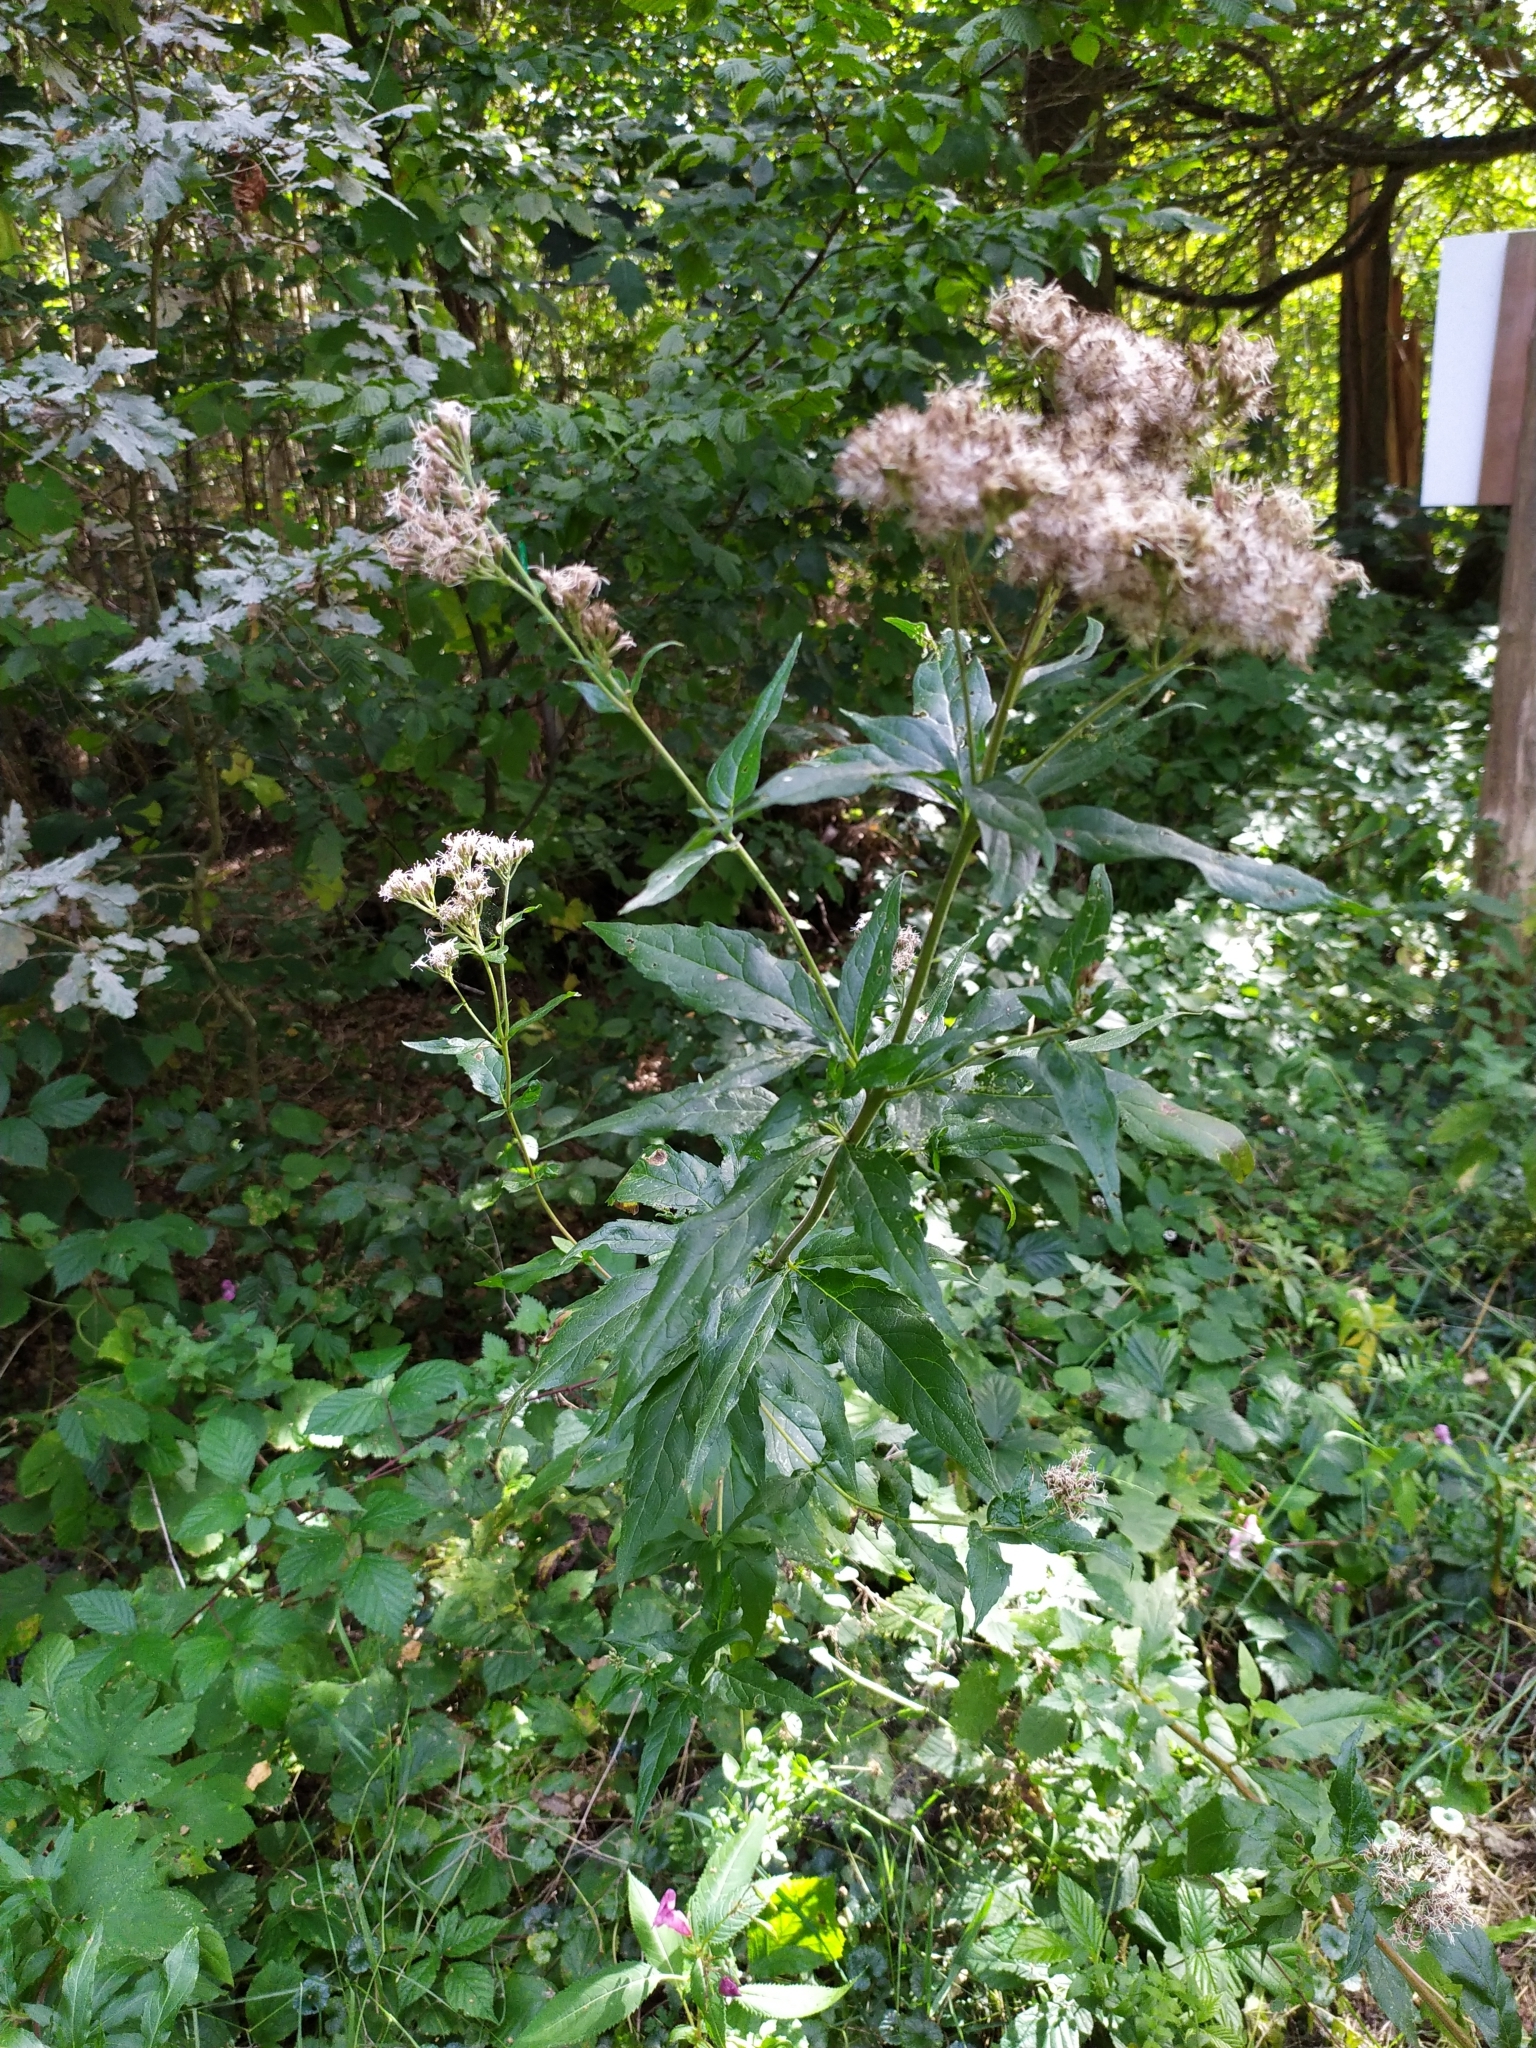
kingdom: Plantae
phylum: Tracheophyta
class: Magnoliopsida
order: Asterales
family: Asteraceae
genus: Eupatorium
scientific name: Eupatorium cannabinum
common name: Hemp-agrimony
